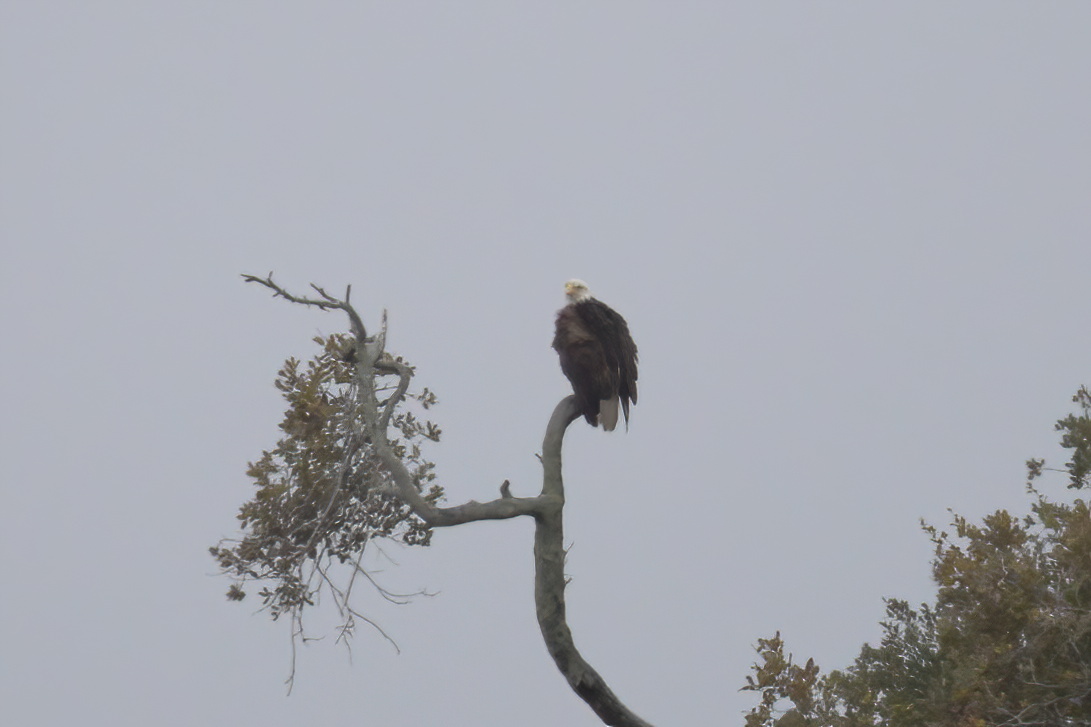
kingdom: Animalia
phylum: Chordata
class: Aves
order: Accipitriformes
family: Accipitridae
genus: Haliaeetus
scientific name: Haliaeetus leucocephalus
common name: Bald eagle
